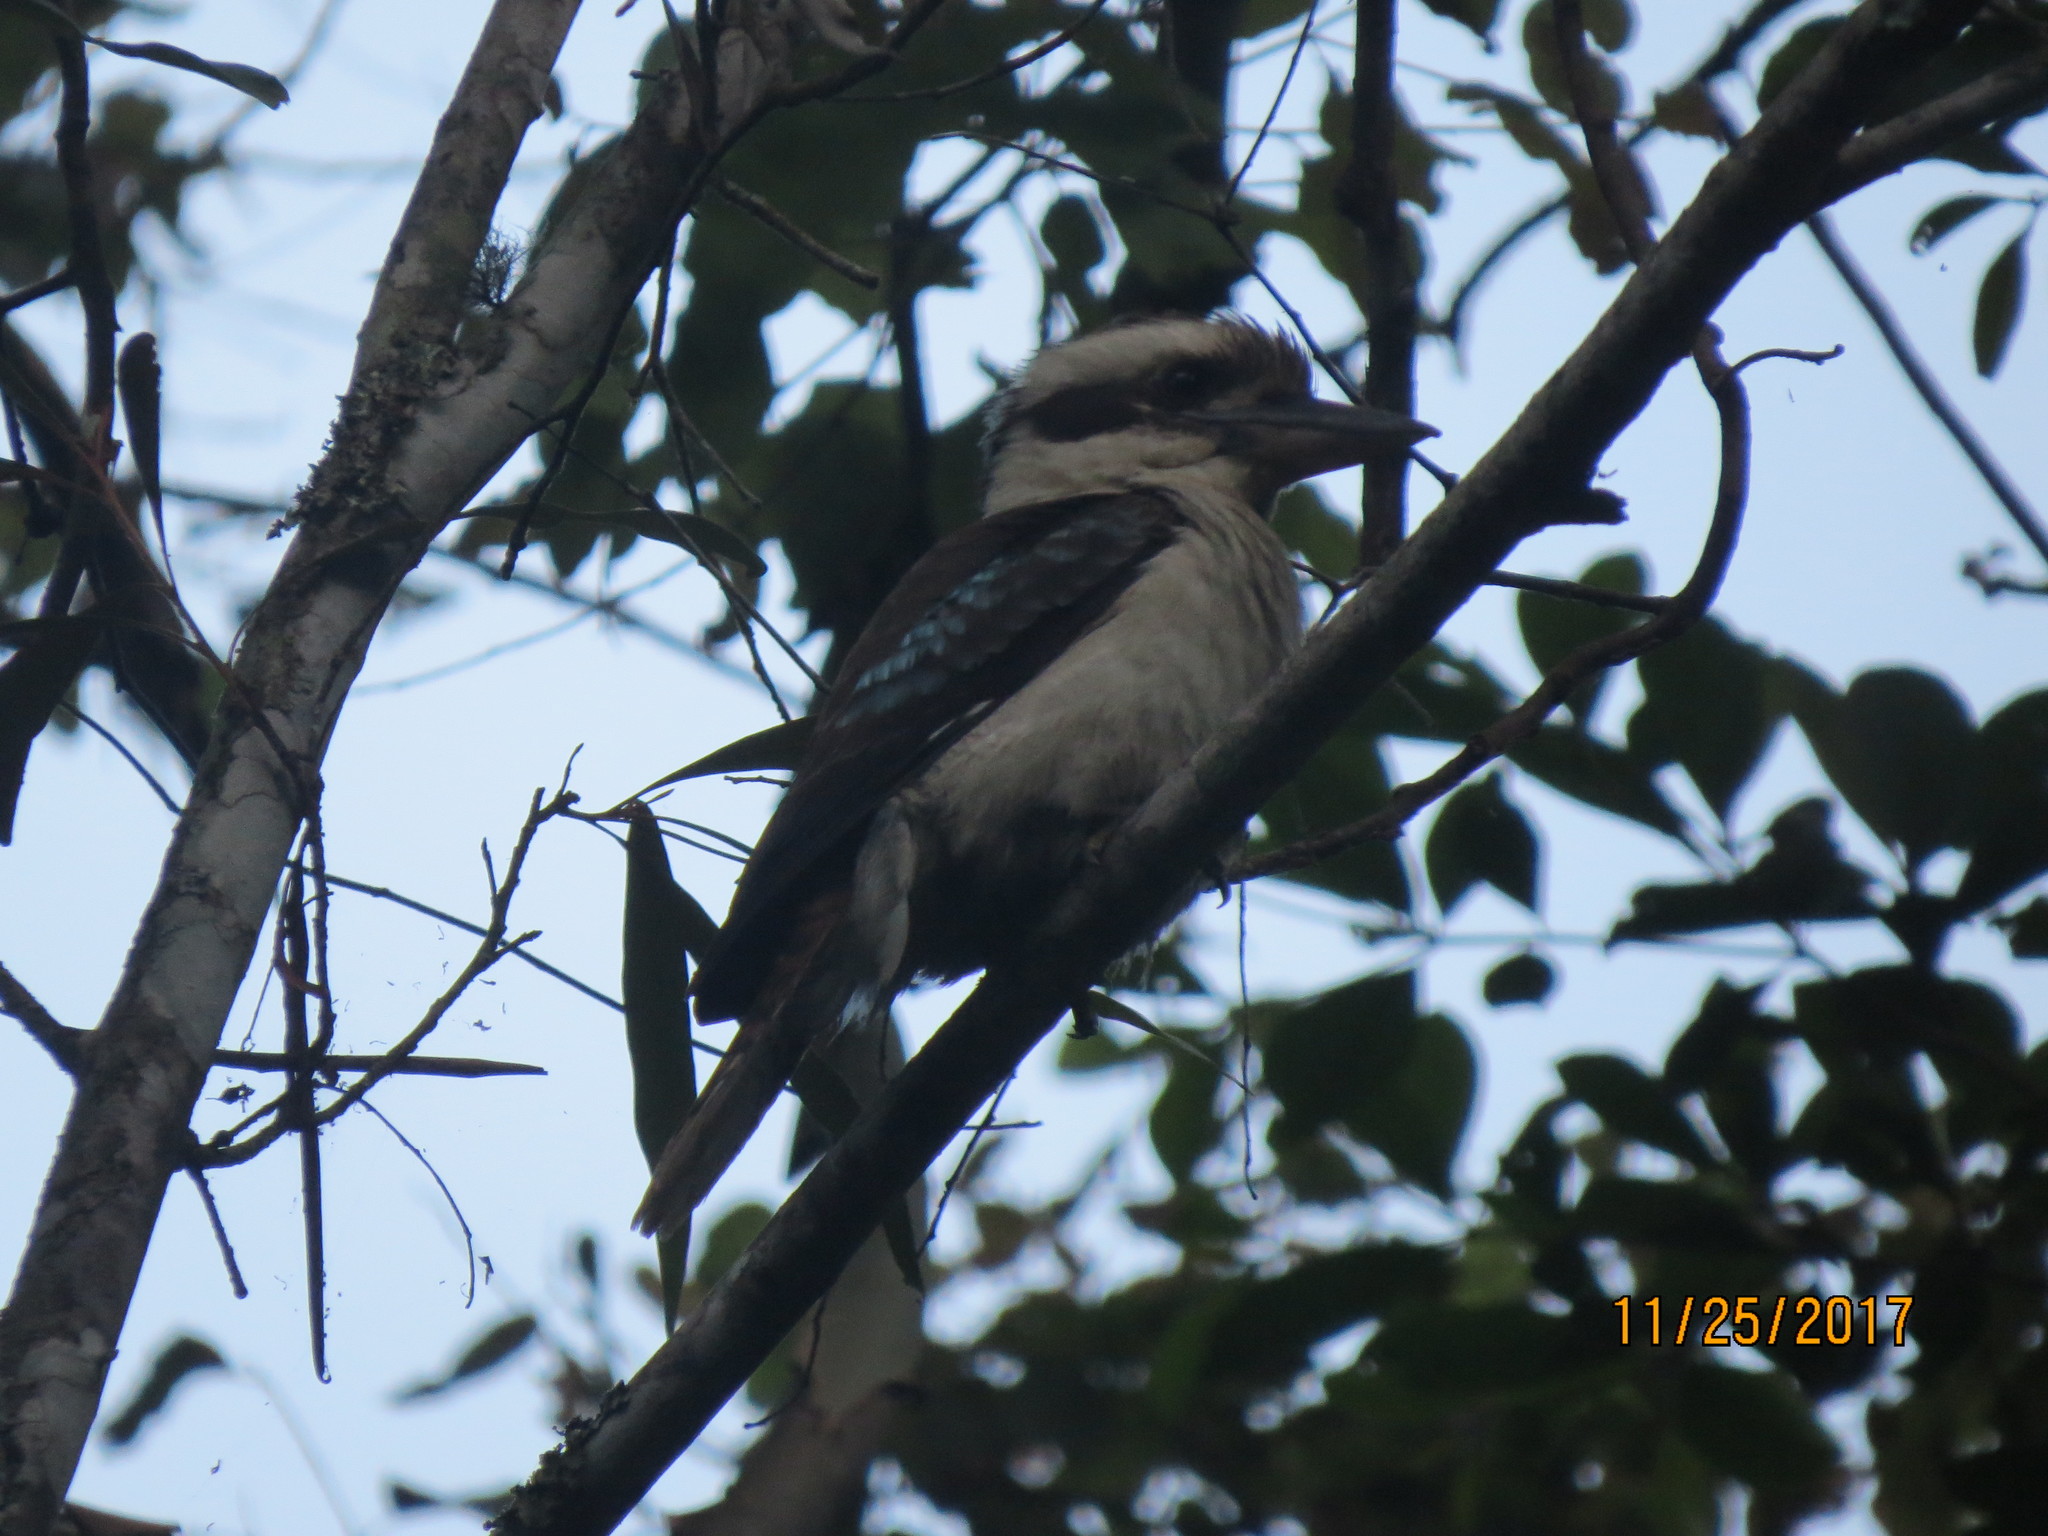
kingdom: Animalia
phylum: Chordata
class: Aves
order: Coraciiformes
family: Alcedinidae
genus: Dacelo
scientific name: Dacelo novaeguineae
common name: Laughing kookaburra
